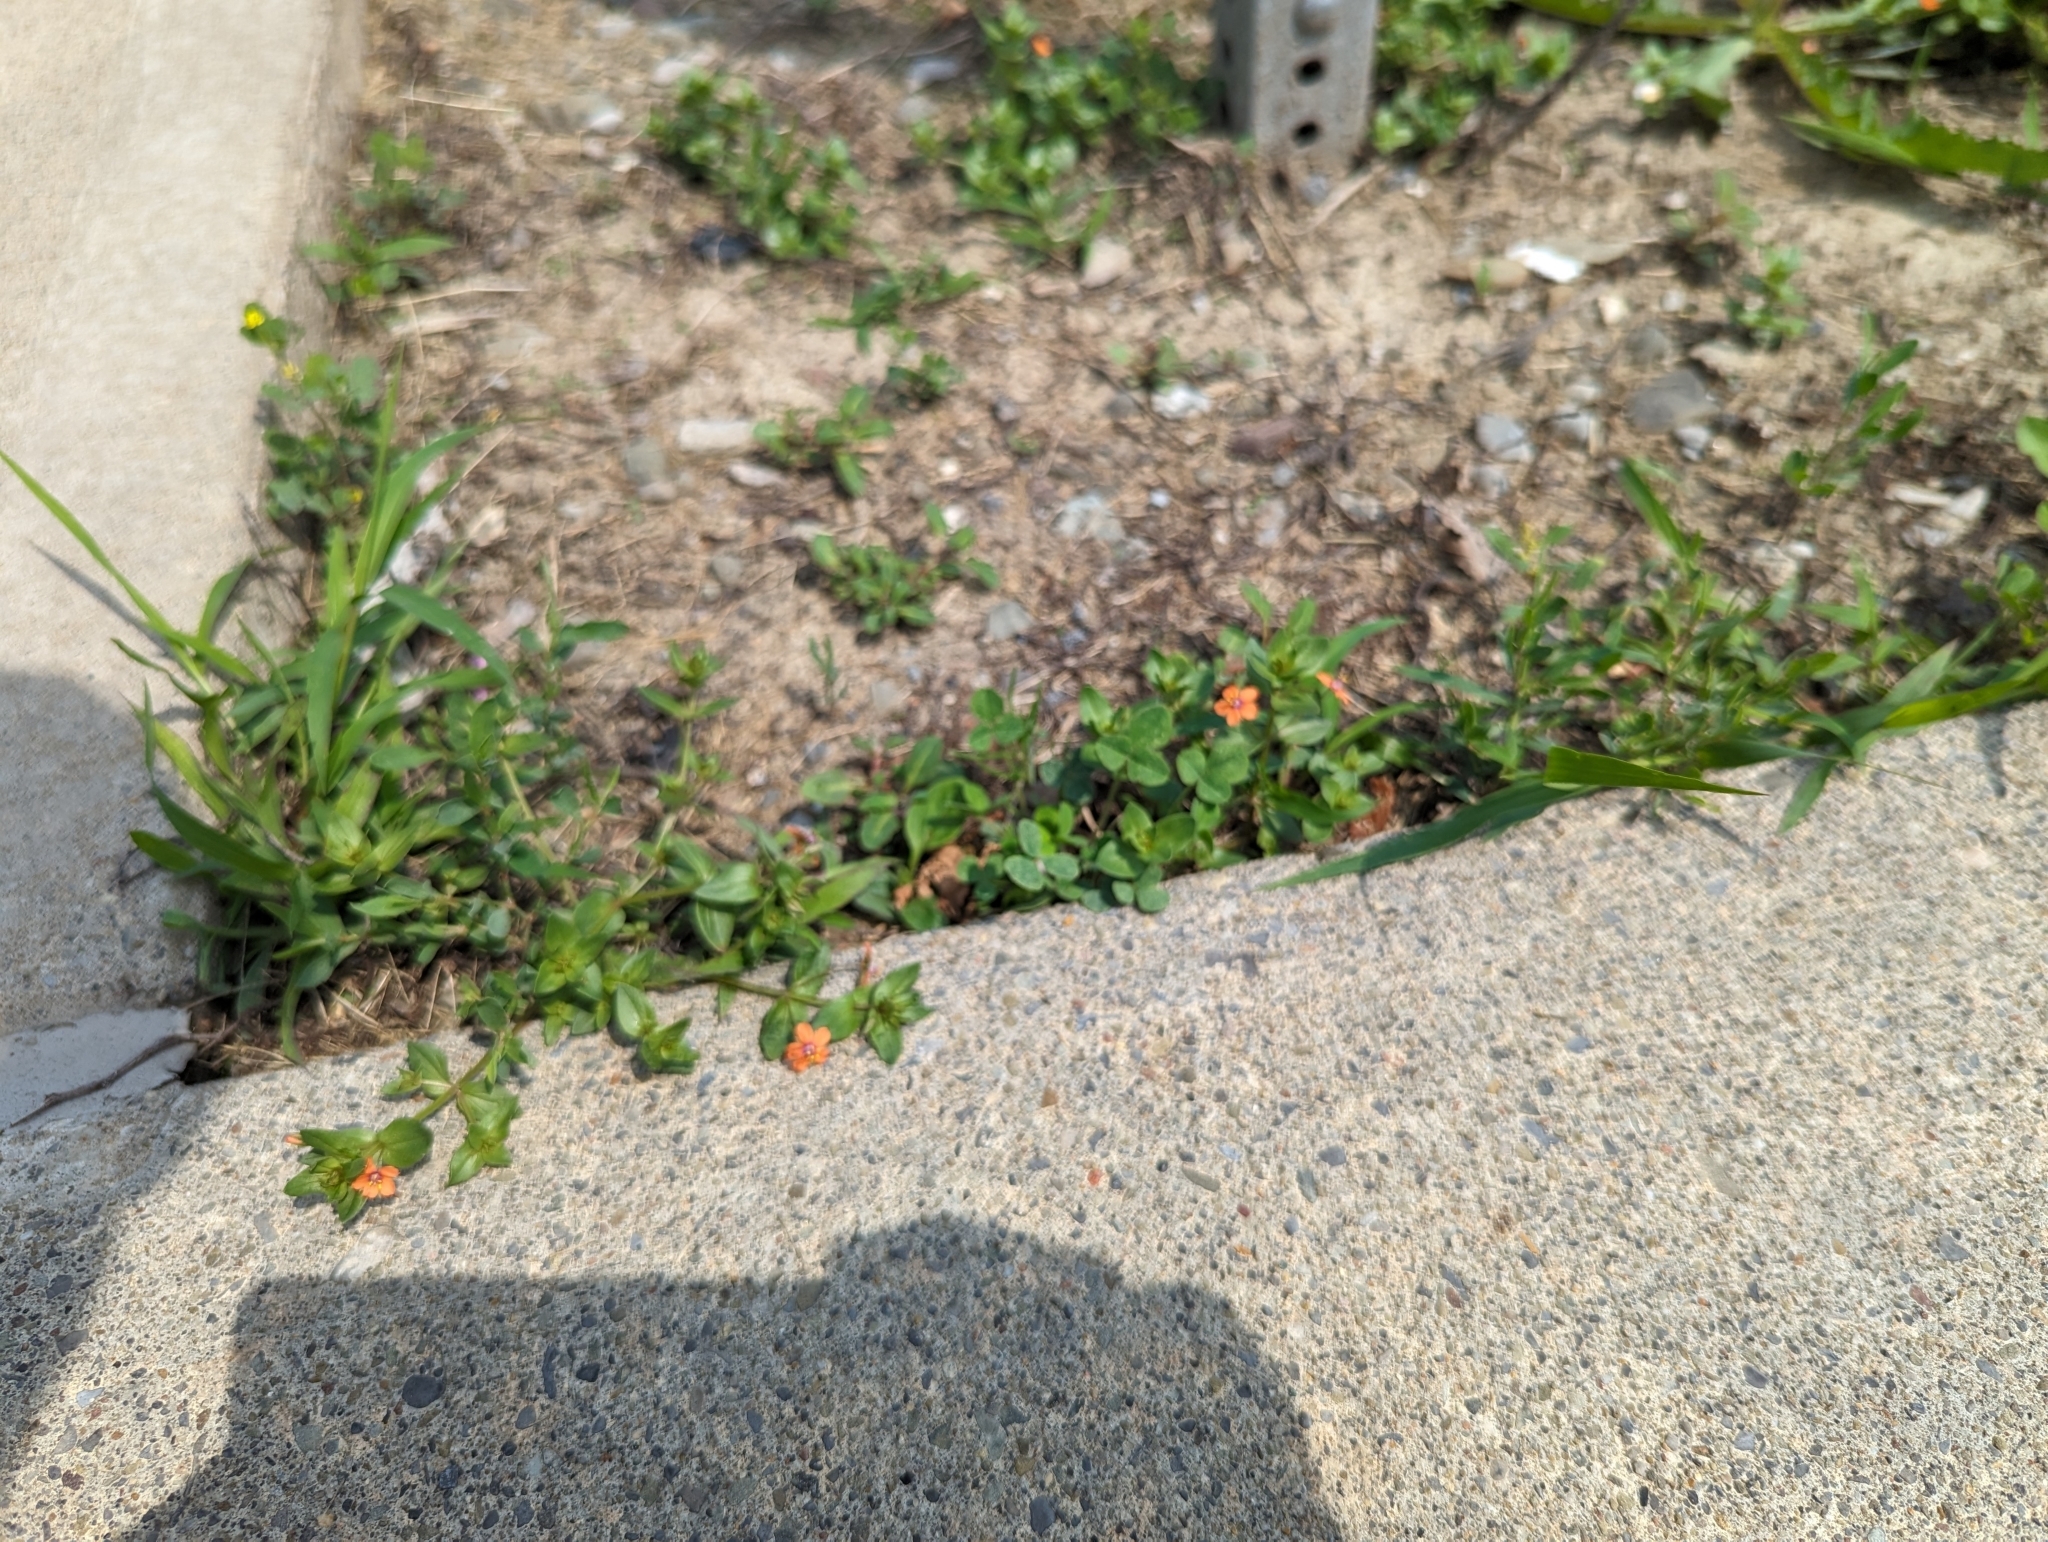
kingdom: Plantae
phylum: Tracheophyta
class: Magnoliopsida
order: Ericales
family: Primulaceae
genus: Lysimachia
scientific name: Lysimachia arvensis
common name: Scarlet pimpernel
